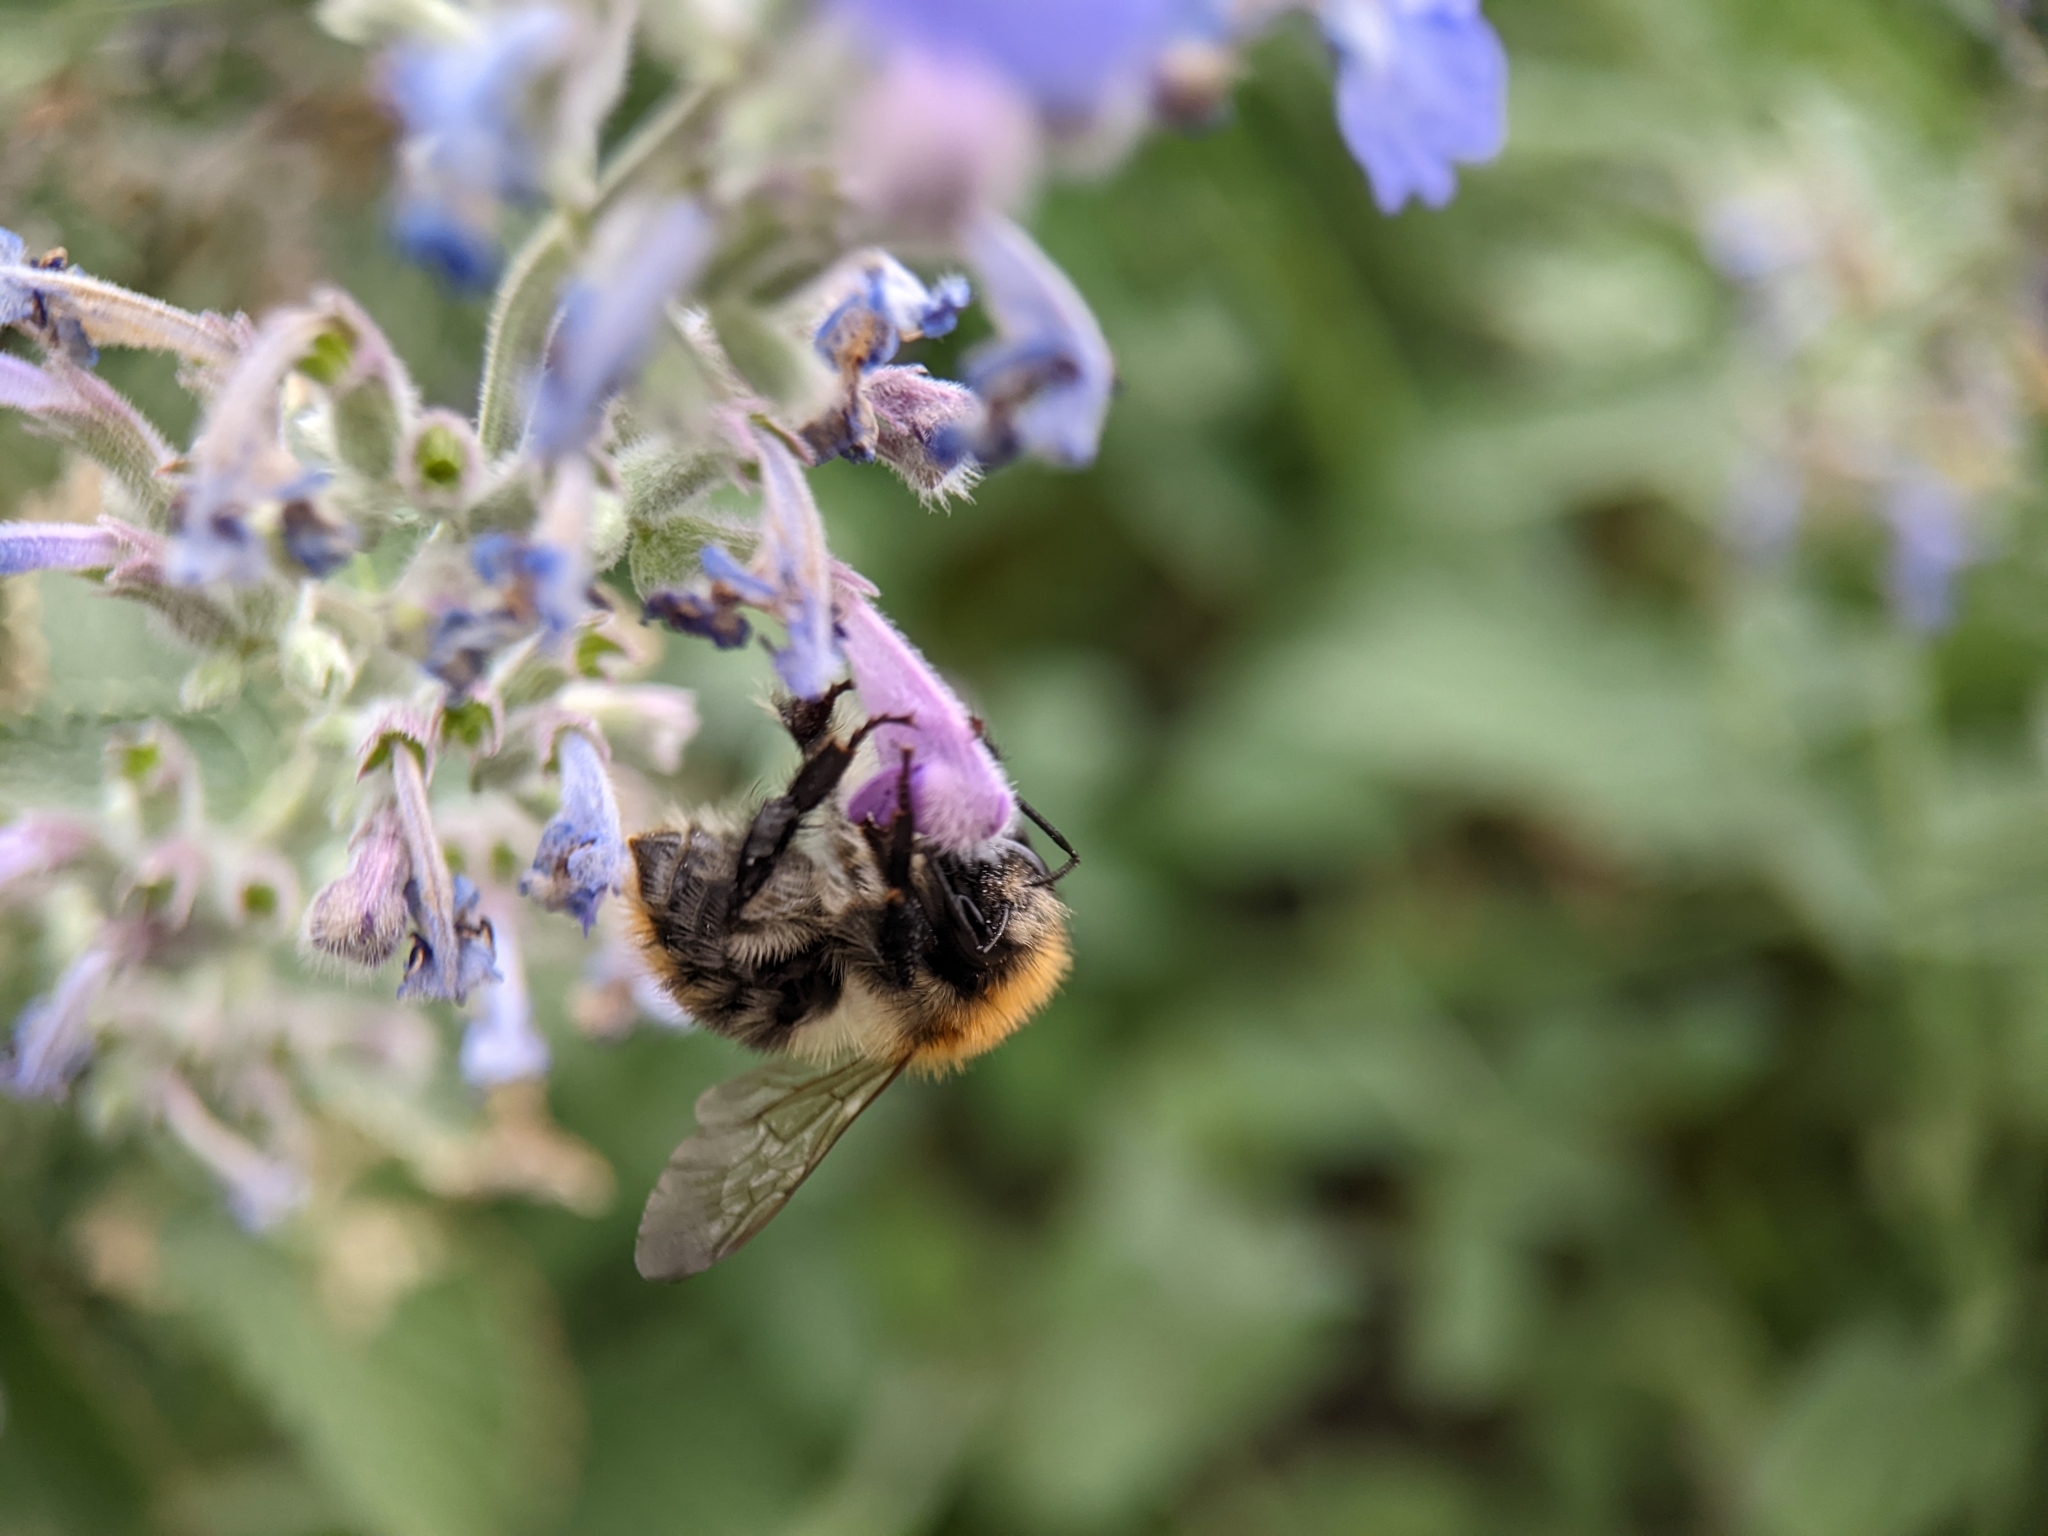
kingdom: Animalia
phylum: Arthropoda
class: Insecta
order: Hymenoptera
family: Apidae
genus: Bombus
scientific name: Bombus pascuorum
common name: Common carder bee
